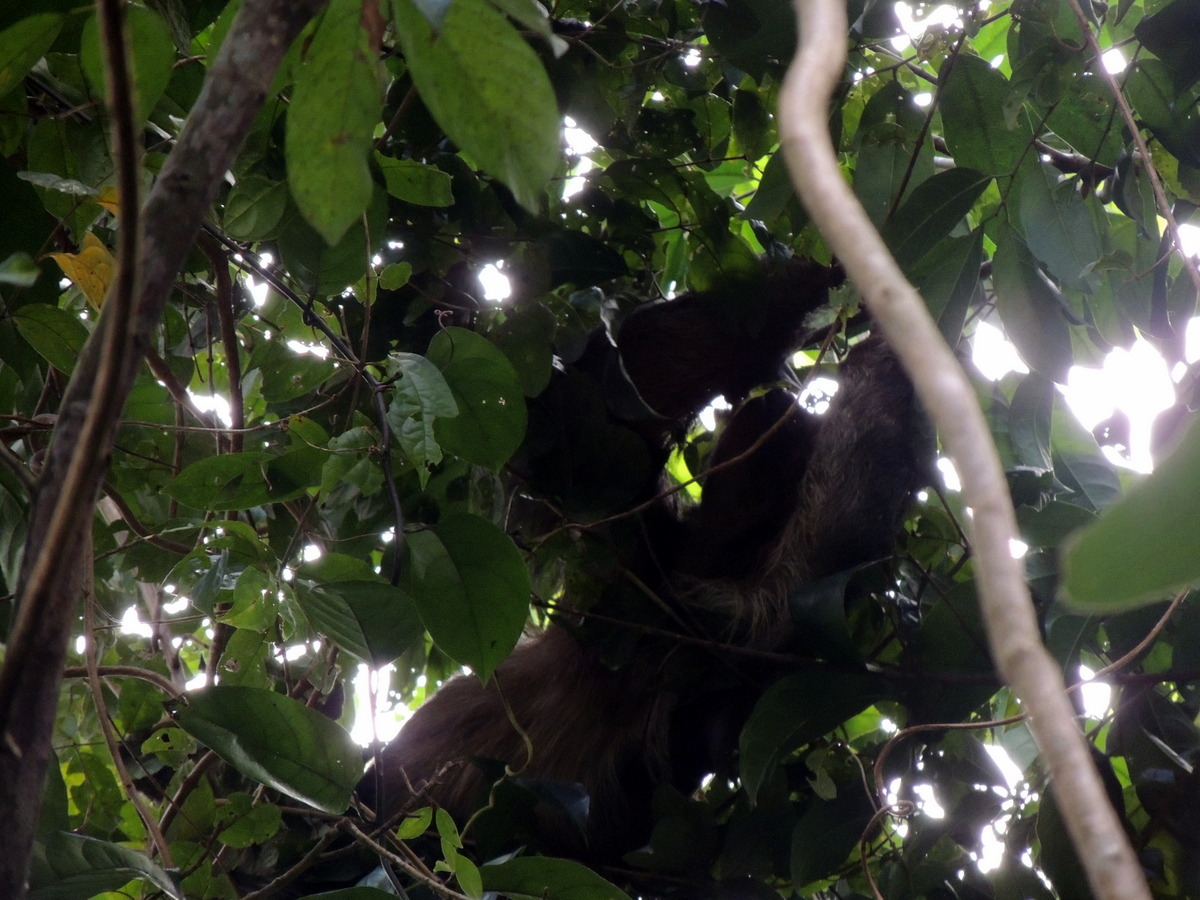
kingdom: Animalia
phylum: Chordata
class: Mammalia
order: Pilosa
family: Bradypodidae
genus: Bradypus
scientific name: Bradypus variegatus
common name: Brown-throated three-toed sloth
